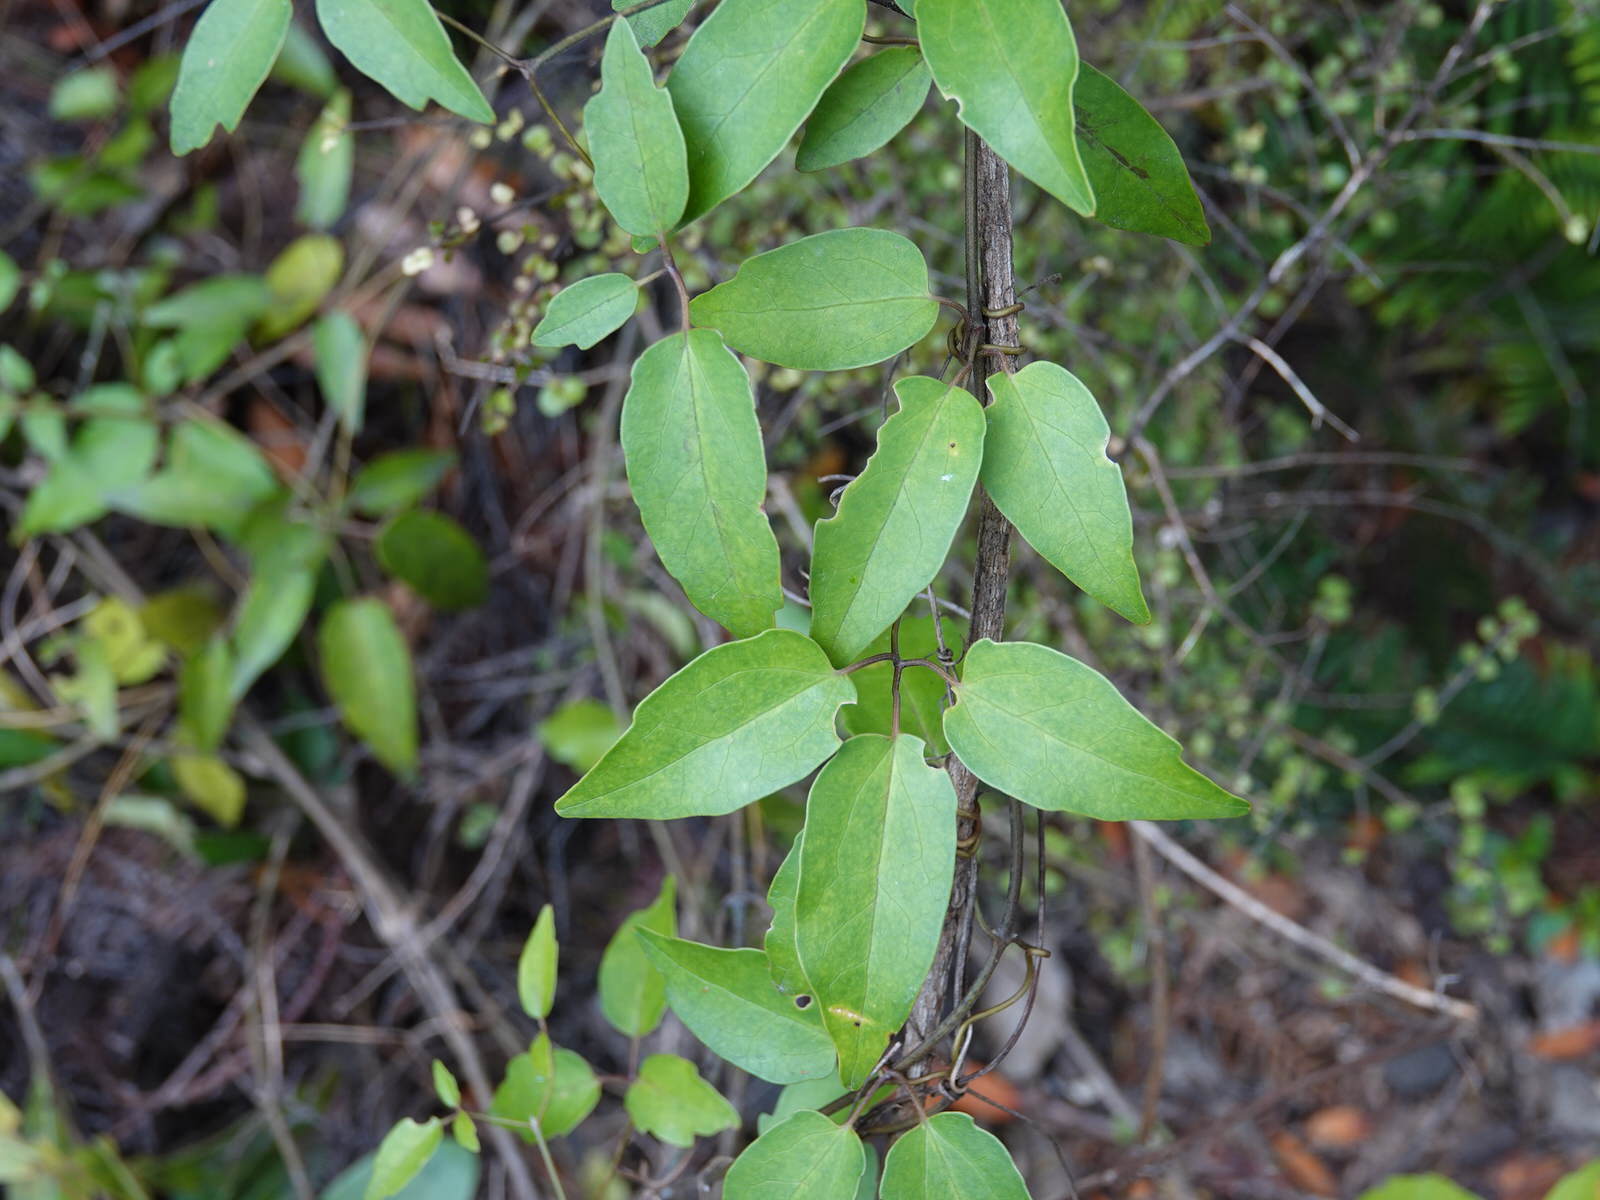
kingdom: Plantae
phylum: Tracheophyta
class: Magnoliopsida
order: Ranunculales
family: Ranunculaceae
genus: Clematis
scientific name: Clematis paniculata
